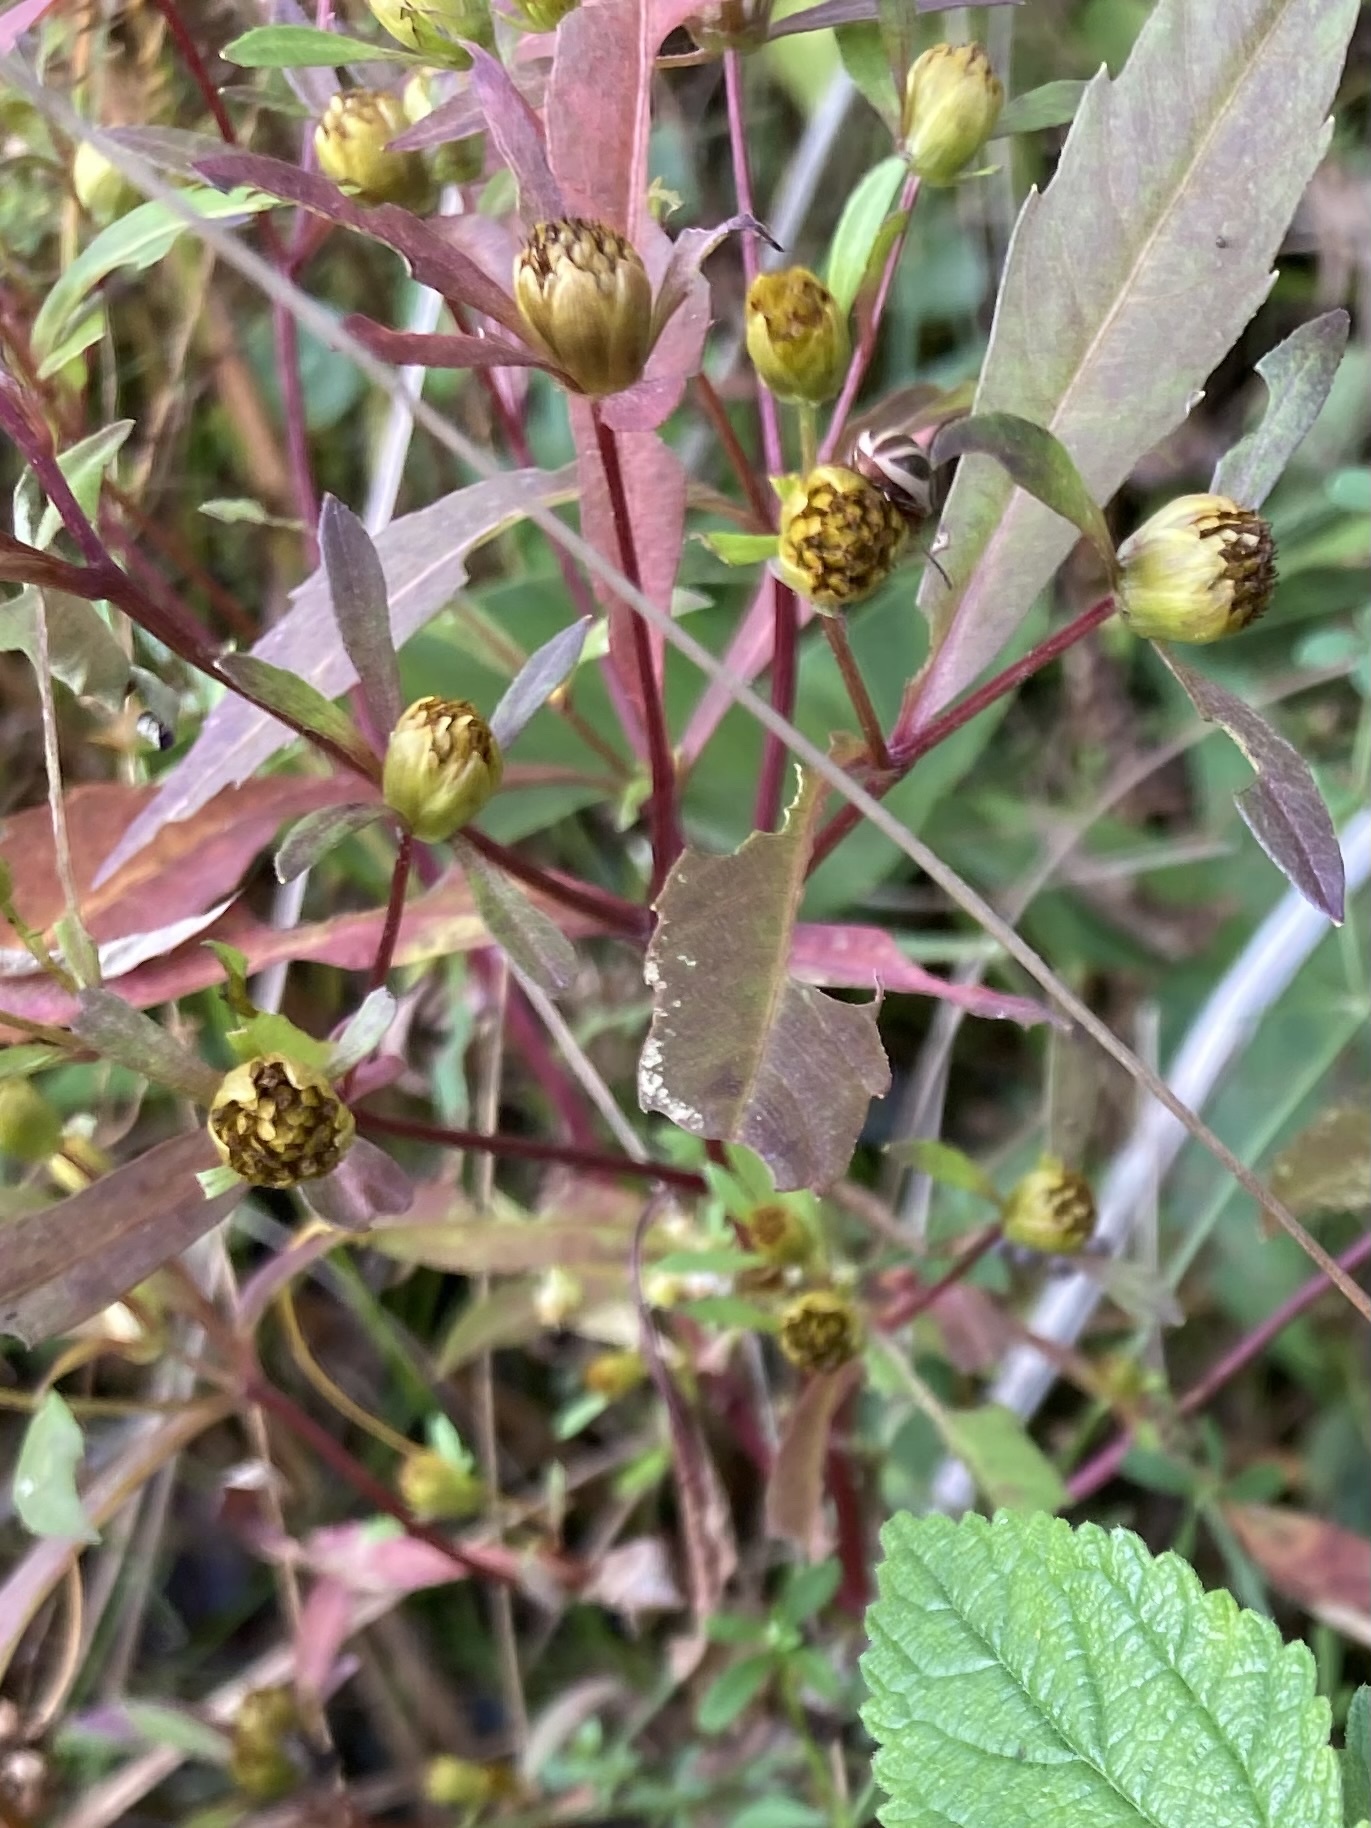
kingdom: Plantae
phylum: Tracheophyta
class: Magnoliopsida
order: Asterales
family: Asteraceae
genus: Bidens
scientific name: Bidens connata
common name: London bur-marigold
